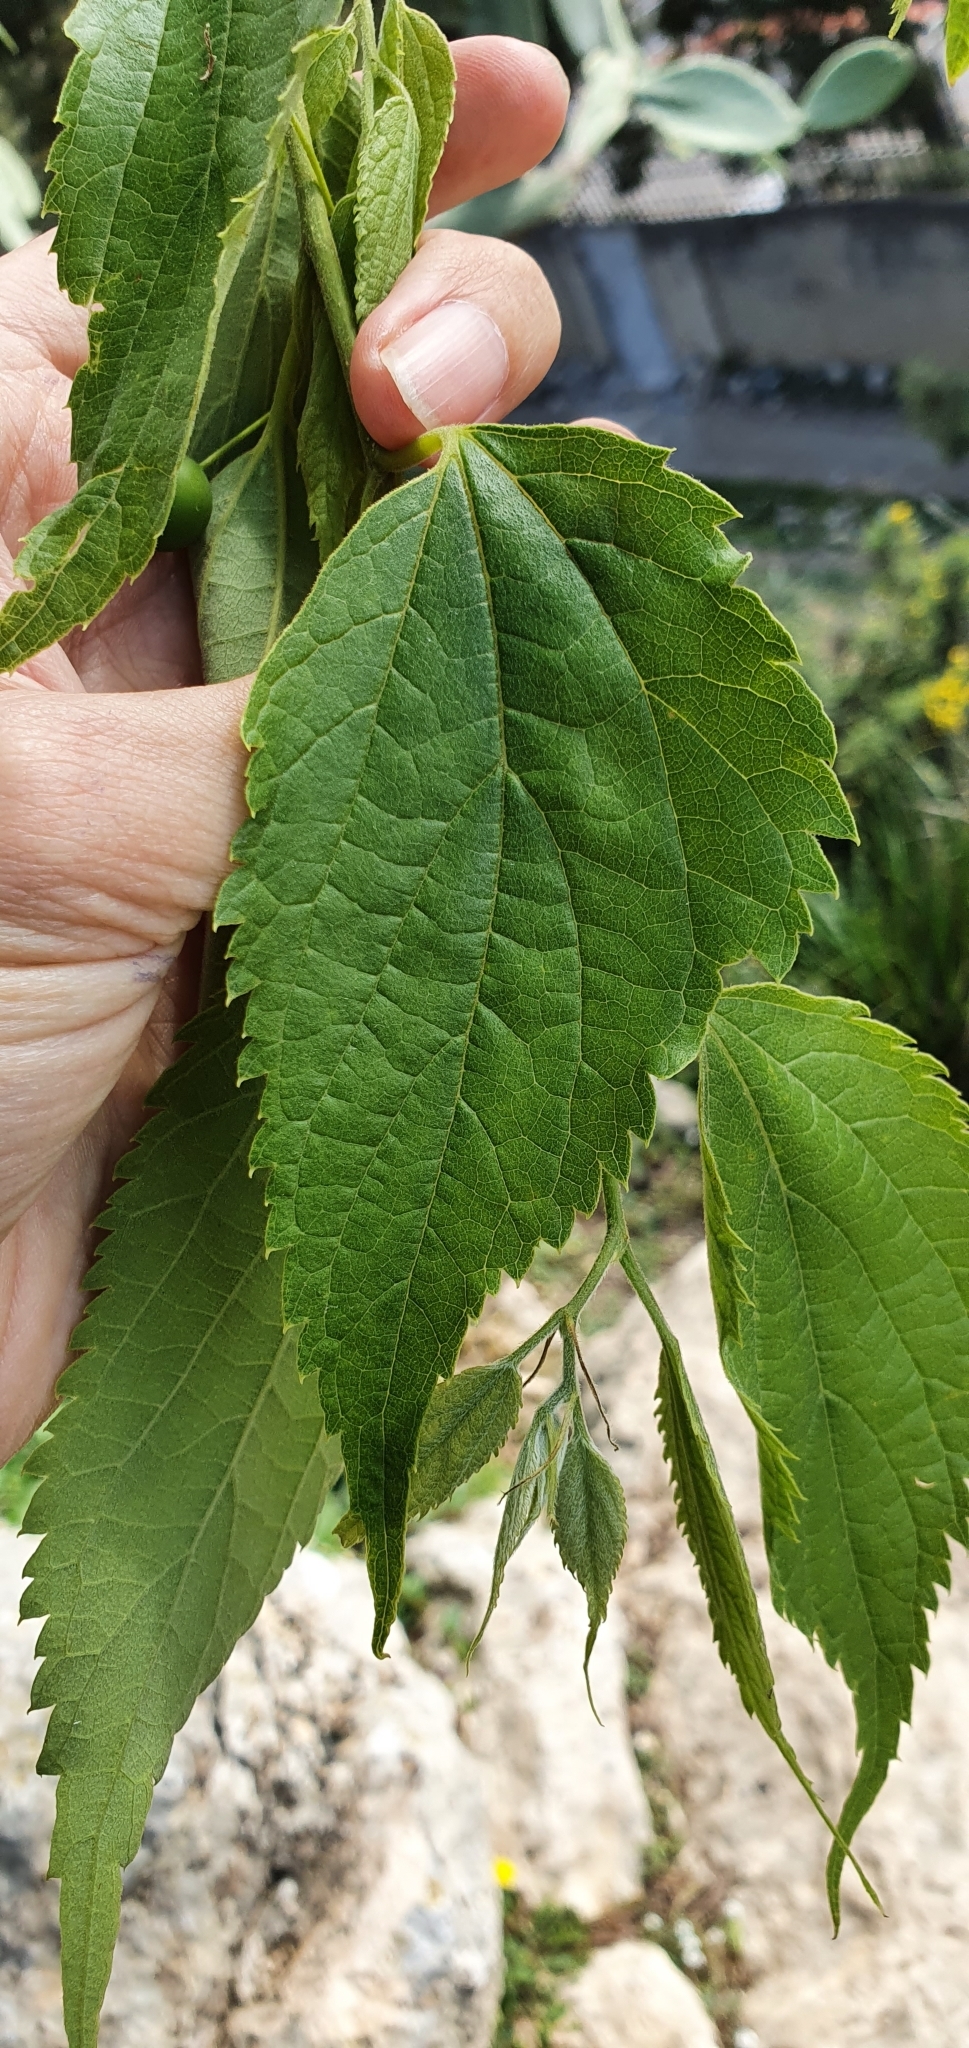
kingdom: Plantae
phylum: Tracheophyta
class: Magnoliopsida
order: Rosales
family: Cannabaceae
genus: Celtis
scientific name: Celtis australis
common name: European hackberry
